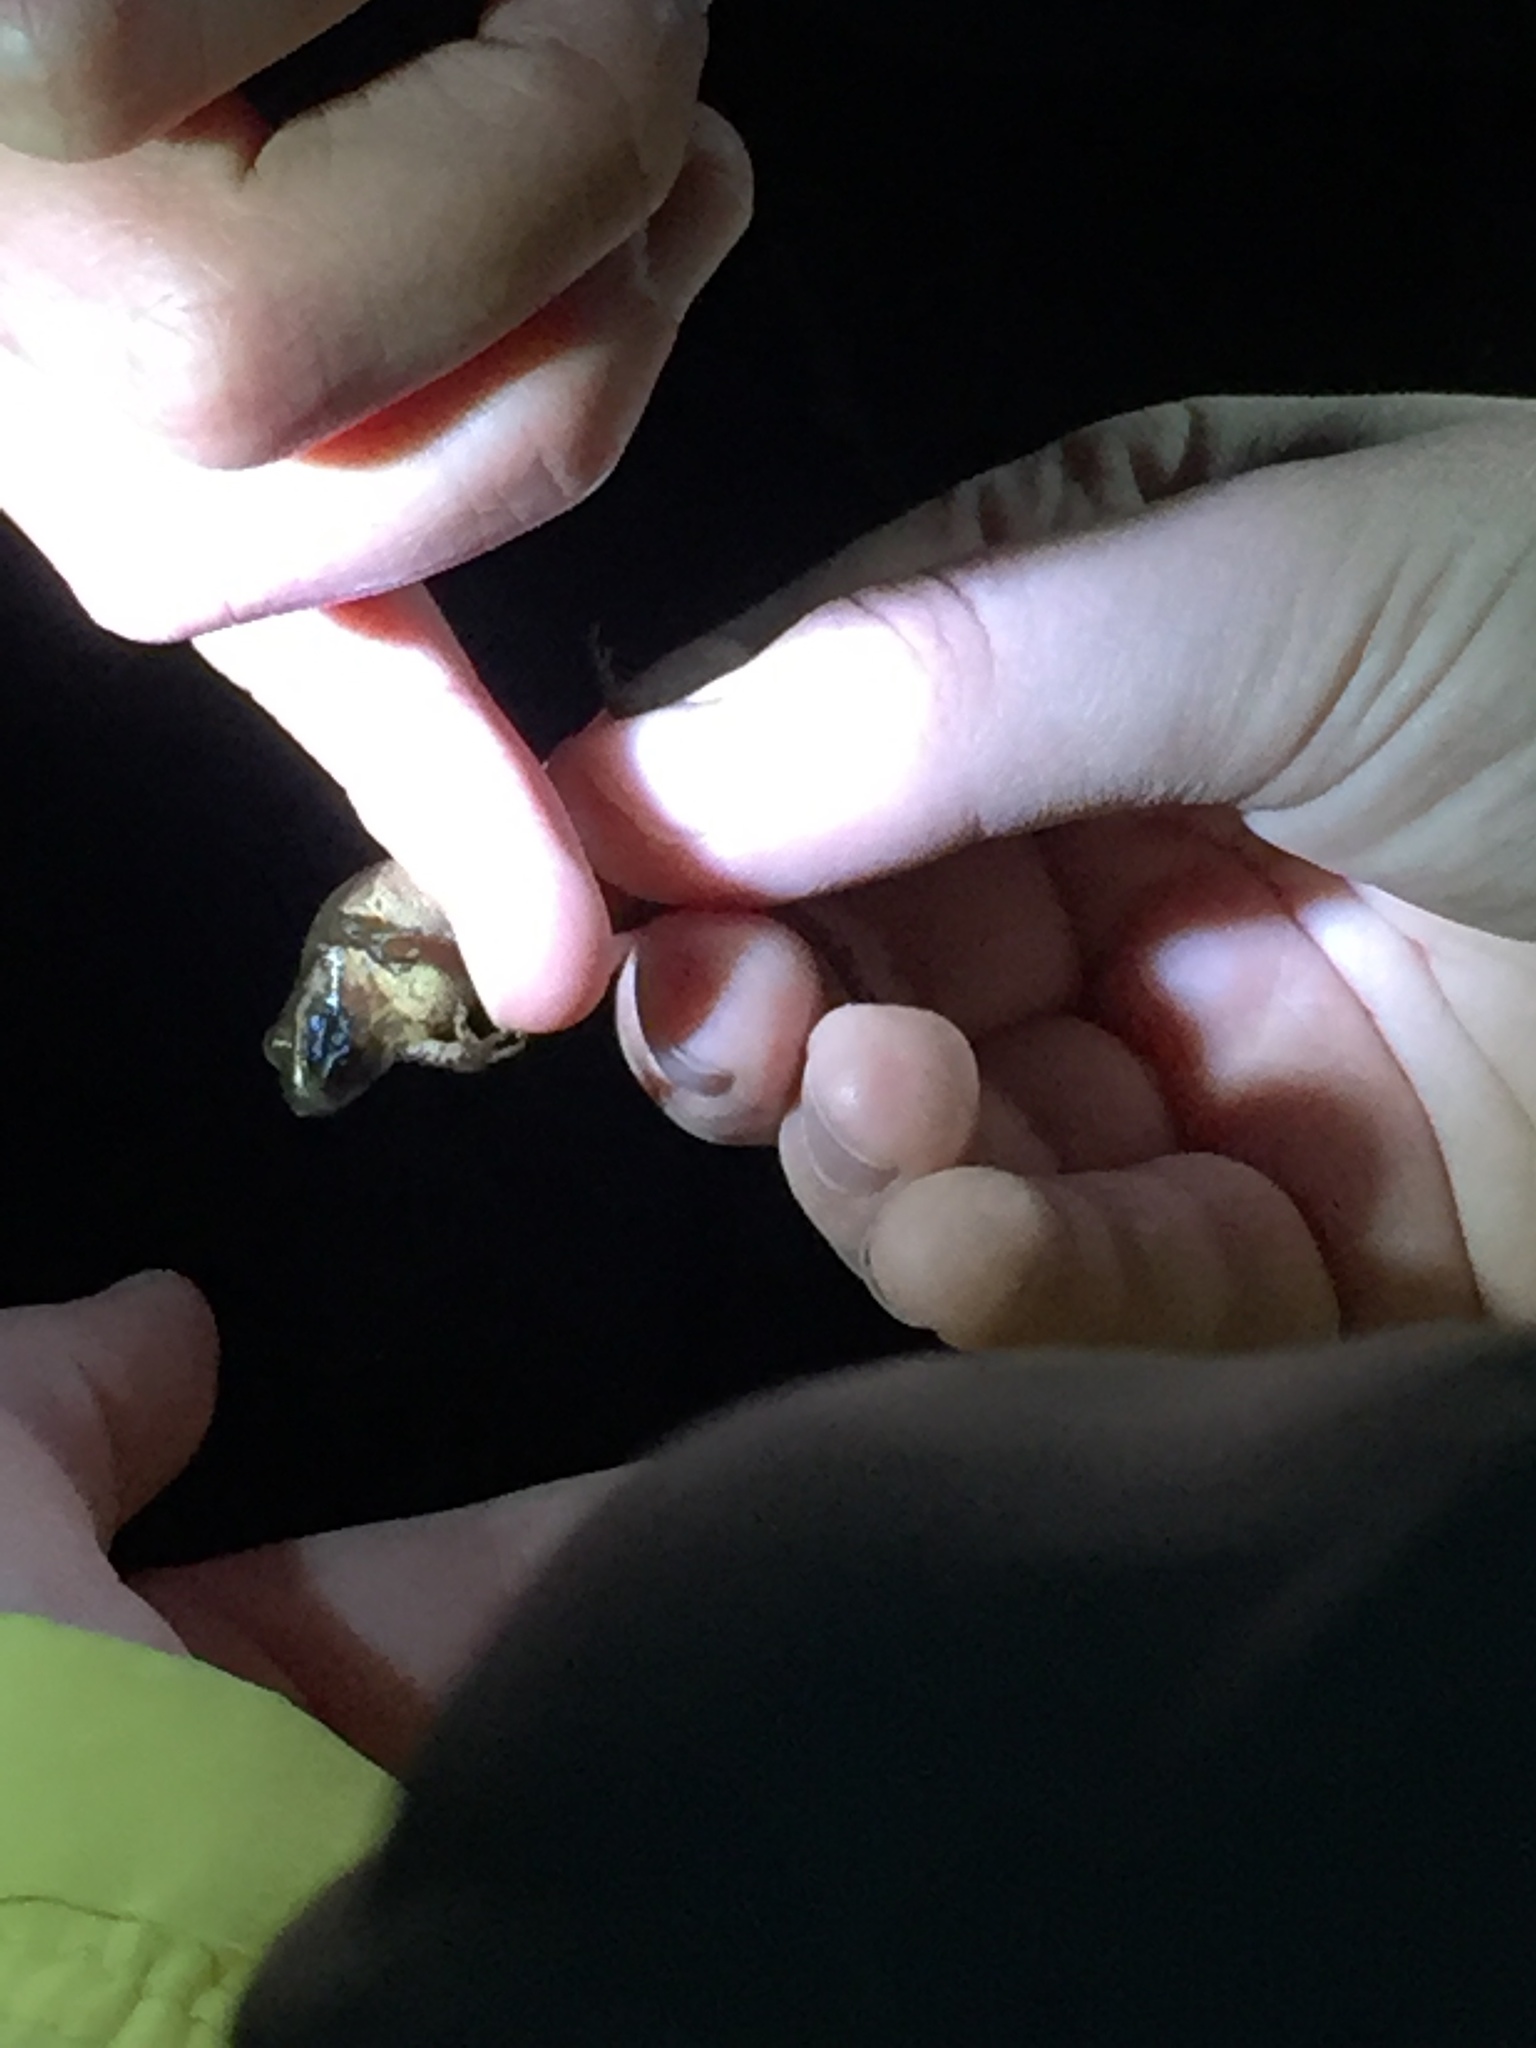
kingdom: Animalia
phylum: Chordata
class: Amphibia
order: Anura
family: Hylidae
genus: Pseudacris
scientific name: Pseudacris crucifer
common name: Spring peeper
